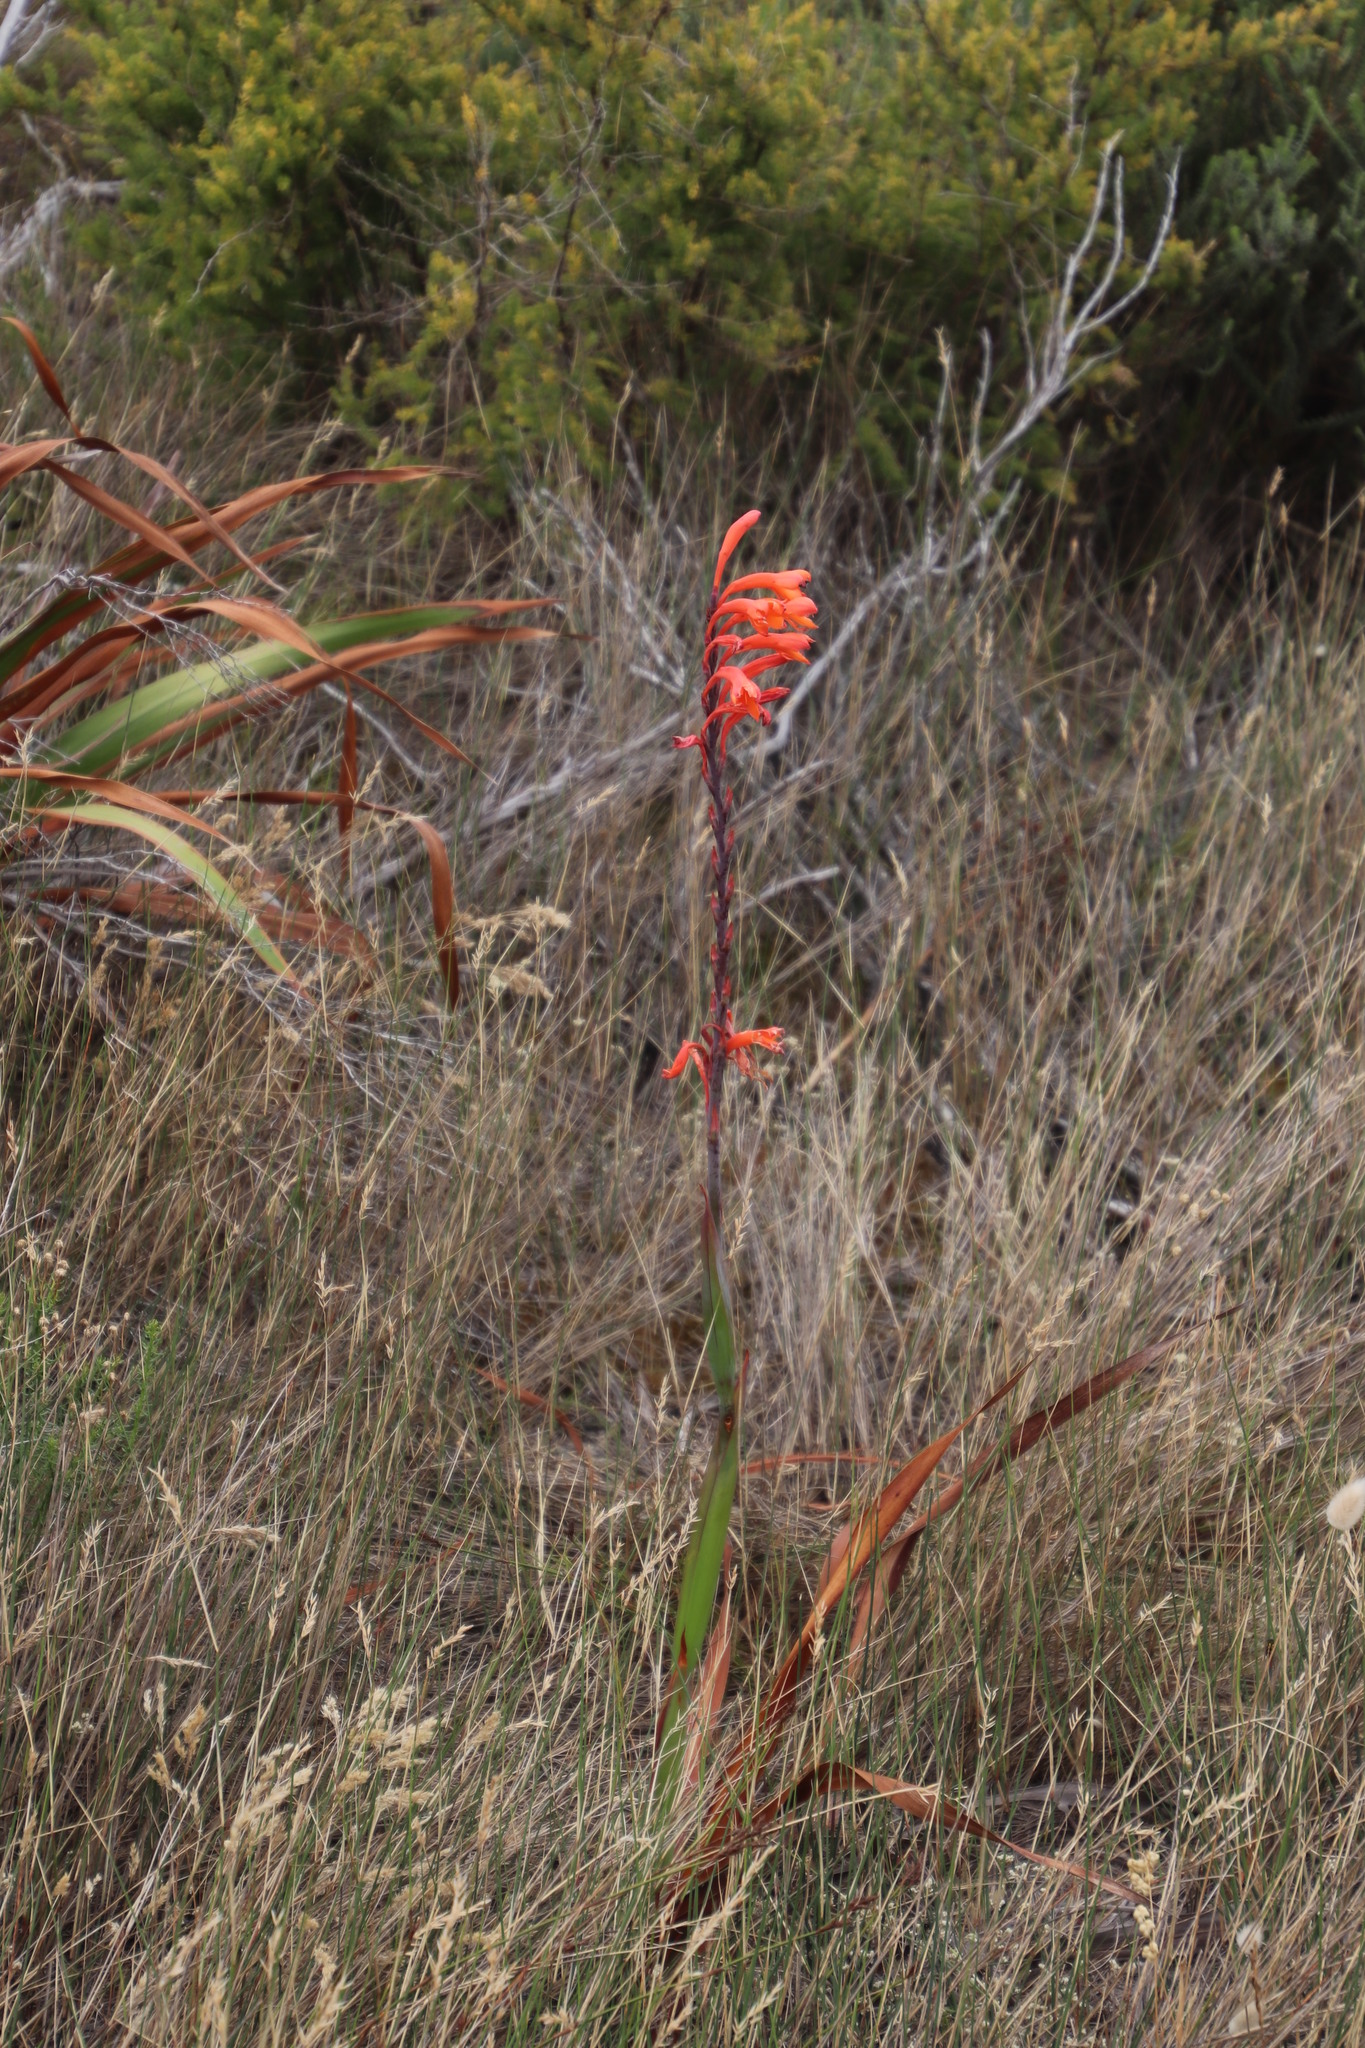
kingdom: Plantae
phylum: Tracheophyta
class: Liliopsida
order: Asparagales
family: Iridaceae
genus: Watsonia
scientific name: Watsonia tabularis
